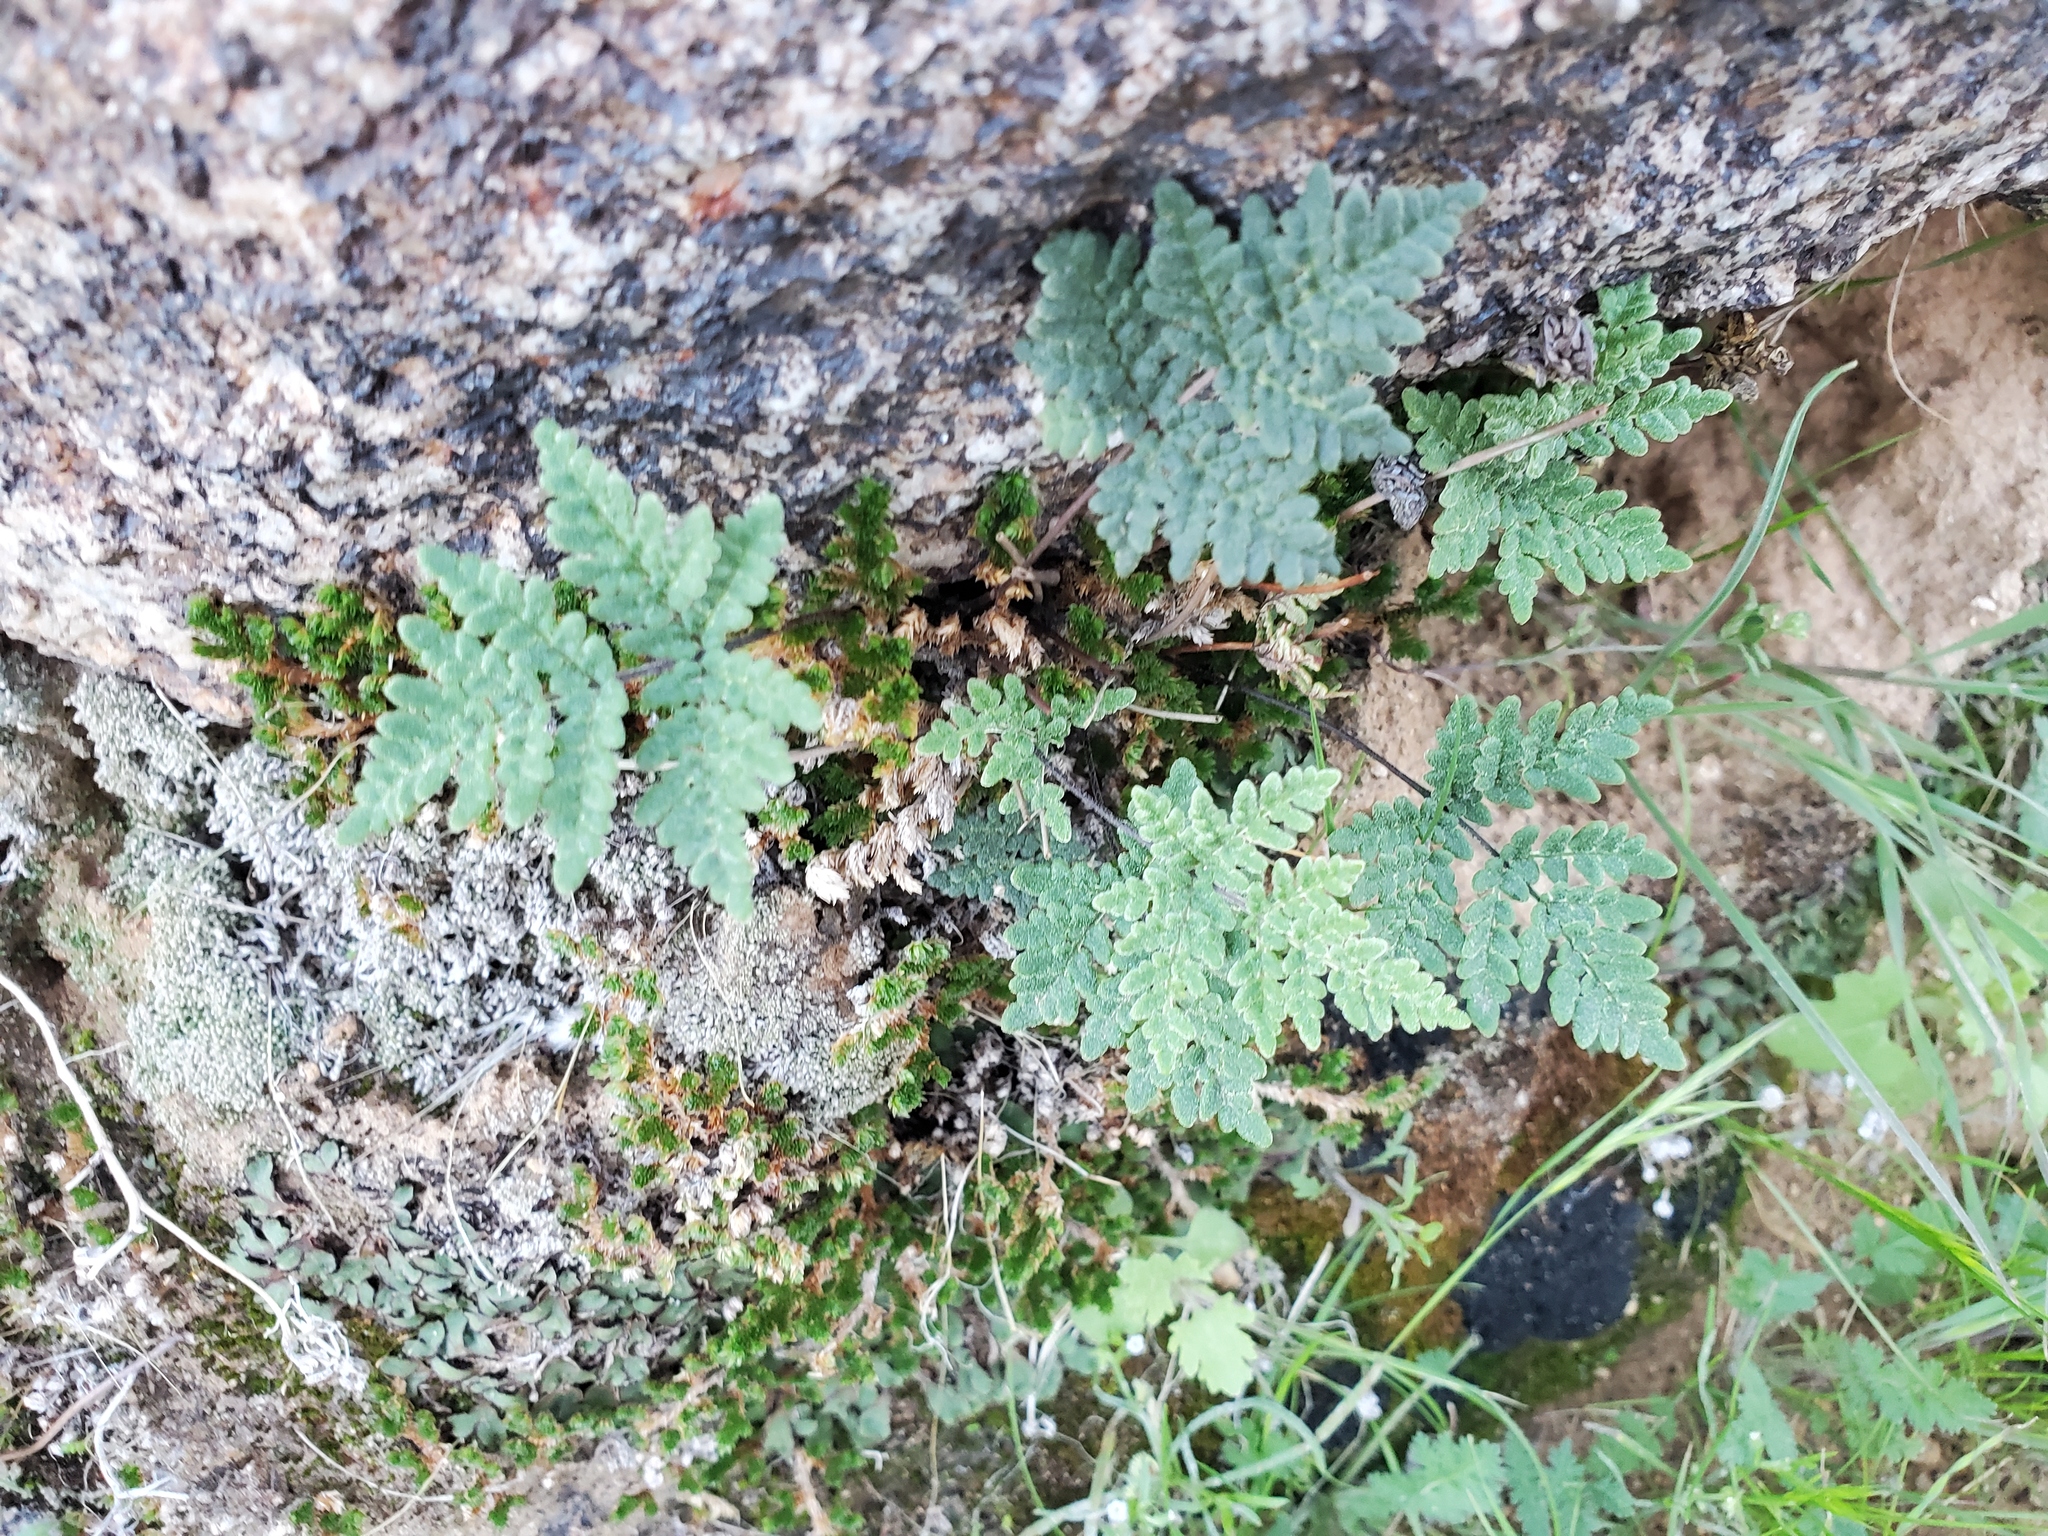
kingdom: Plantae
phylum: Tracheophyta
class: Polypodiopsida
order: Polypodiales
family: Pteridaceae
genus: Notholaena
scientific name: Notholaena californica
